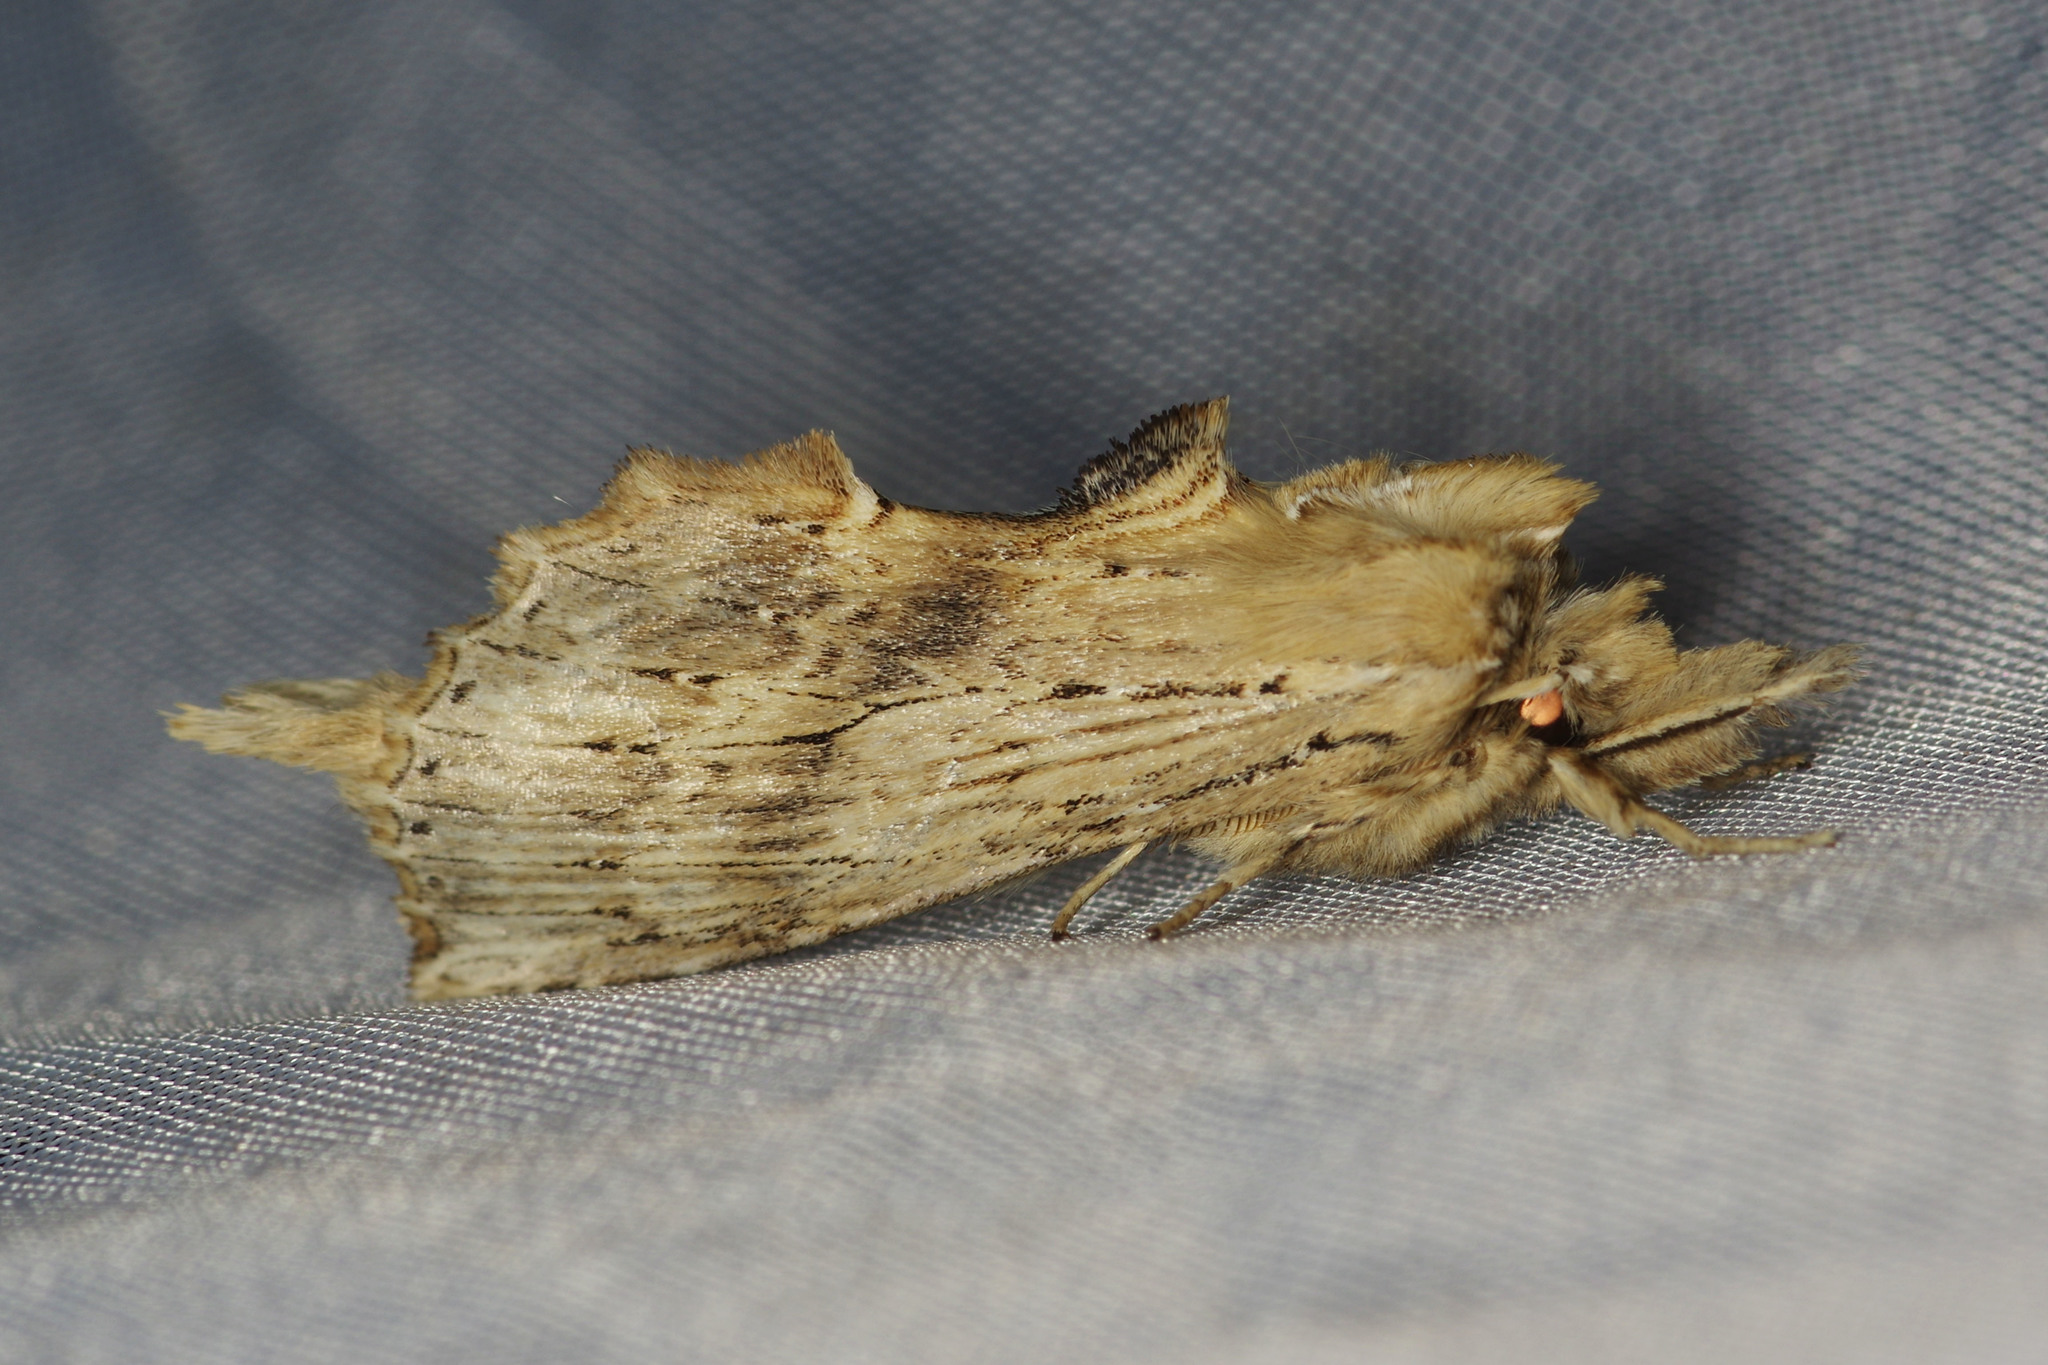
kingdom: Animalia
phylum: Arthropoda
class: Insecta
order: Lepidoptera
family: Notodontidae
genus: Pterostoma
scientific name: Pterostoma palpina
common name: Pale prominent
